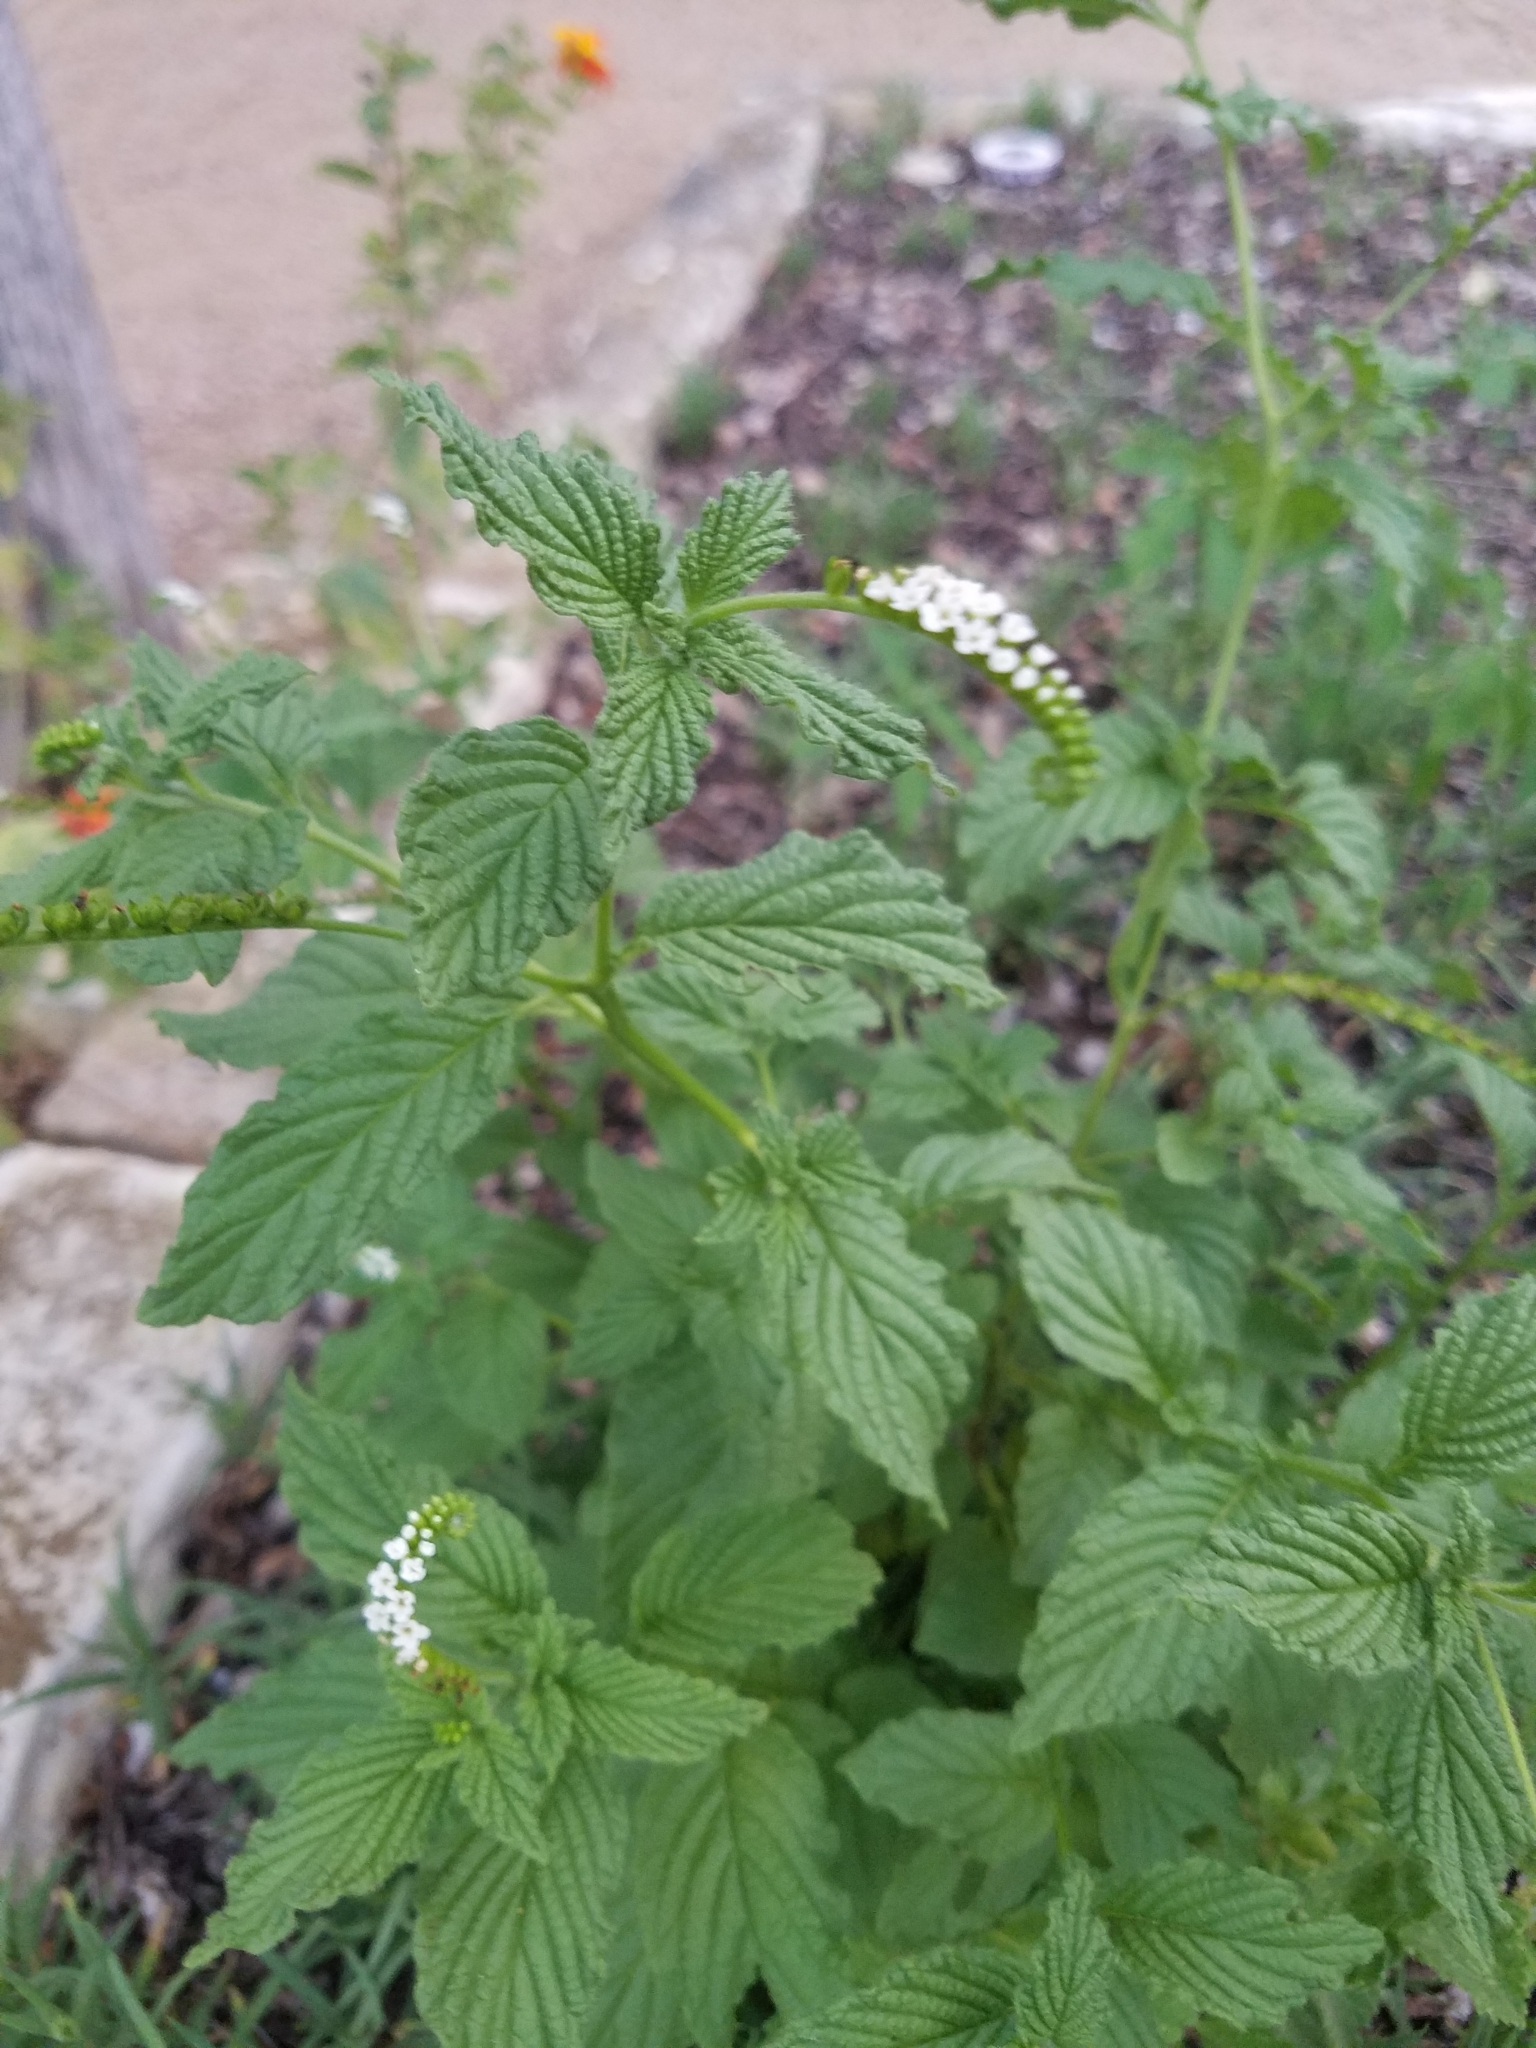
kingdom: Plantae
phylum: Tracheophyta
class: Magnoliopsida
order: Boraginales
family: Heliotropiaceae
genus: Heliotropium
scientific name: Heliotropium angiospermum
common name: Eye bright
